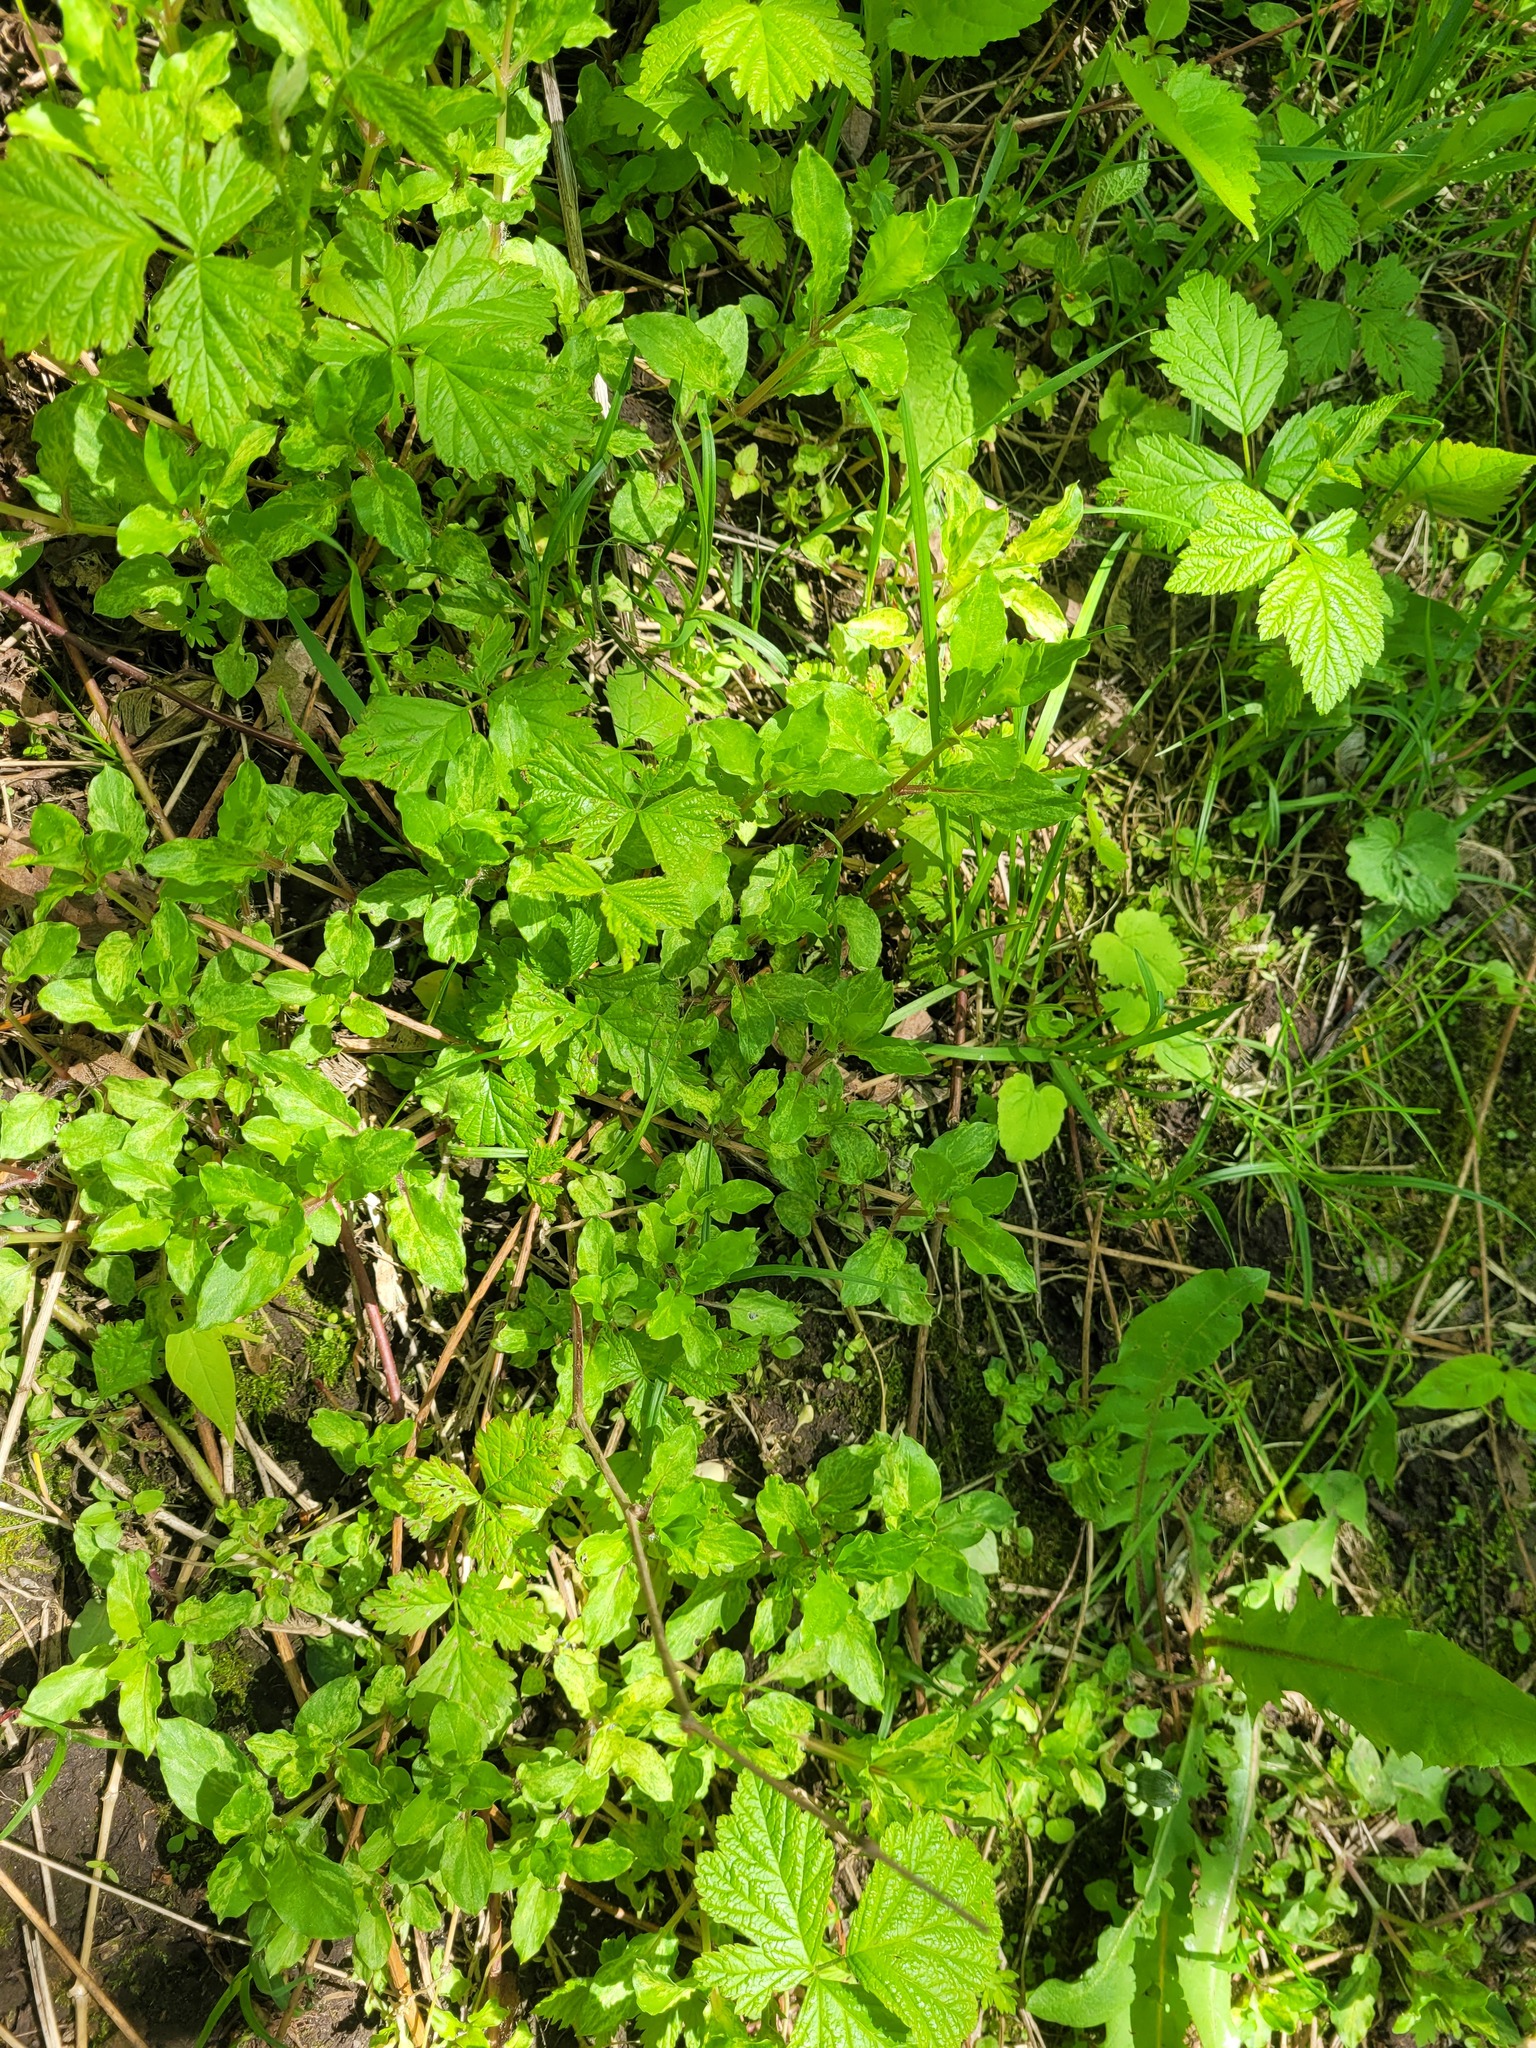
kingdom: Plantae
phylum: Tracheophyta
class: Magnoliopsida
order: Caryophyllales
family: Caryophyllaceae
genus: Stellaria
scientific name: Stellaria aquatica
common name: Water chickweed
